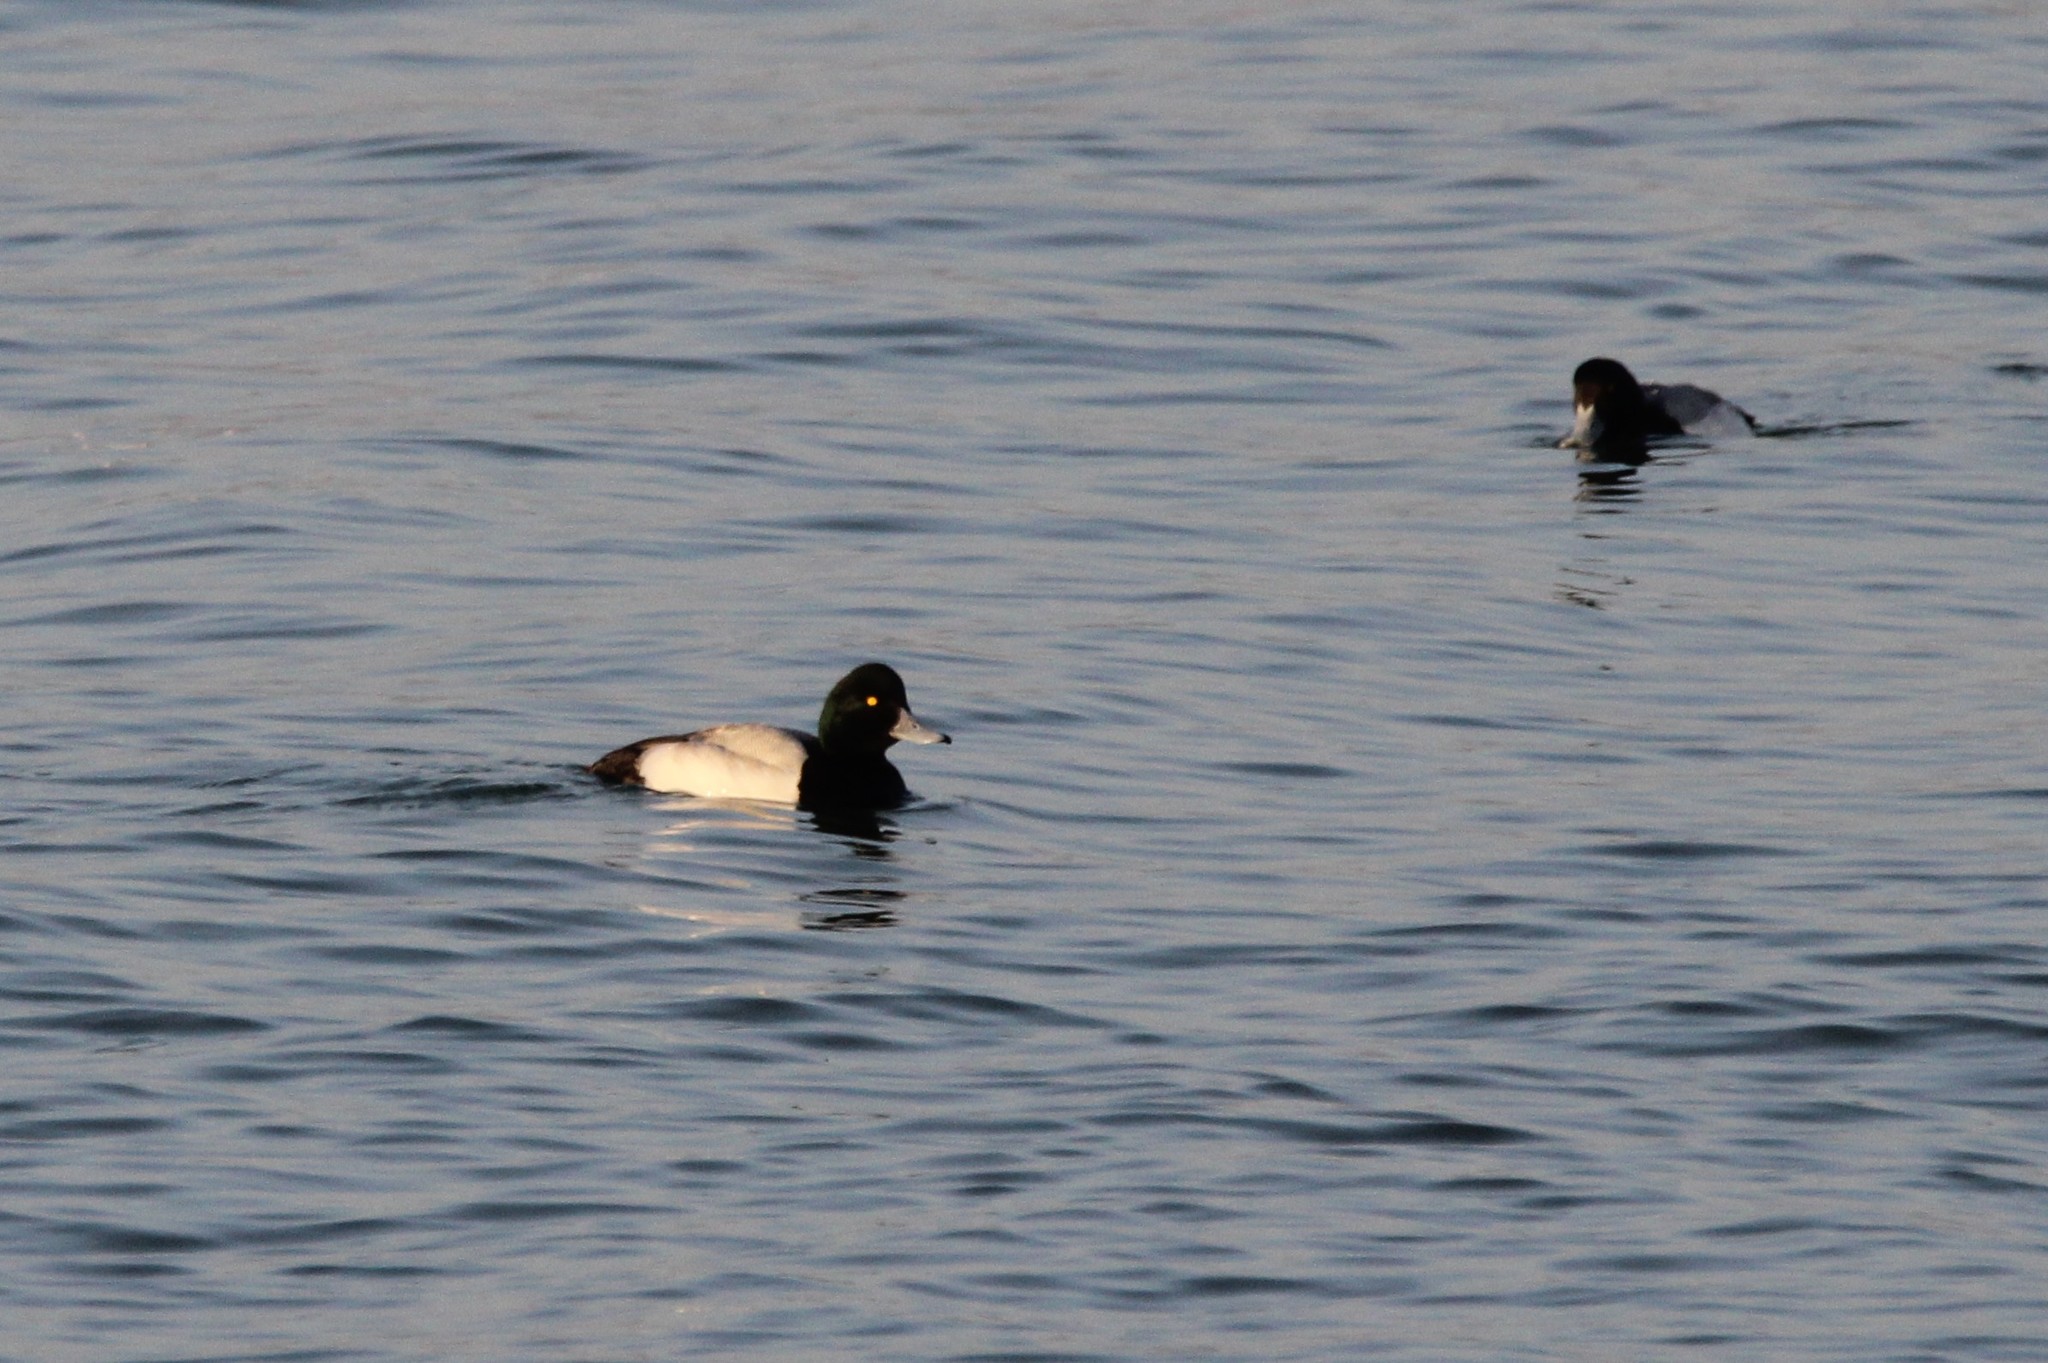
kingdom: Animalia
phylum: Chordata
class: Aves
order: Anseriformes
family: Anatidae
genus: Aythya
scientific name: Aythya affinis
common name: Lesser scaup
